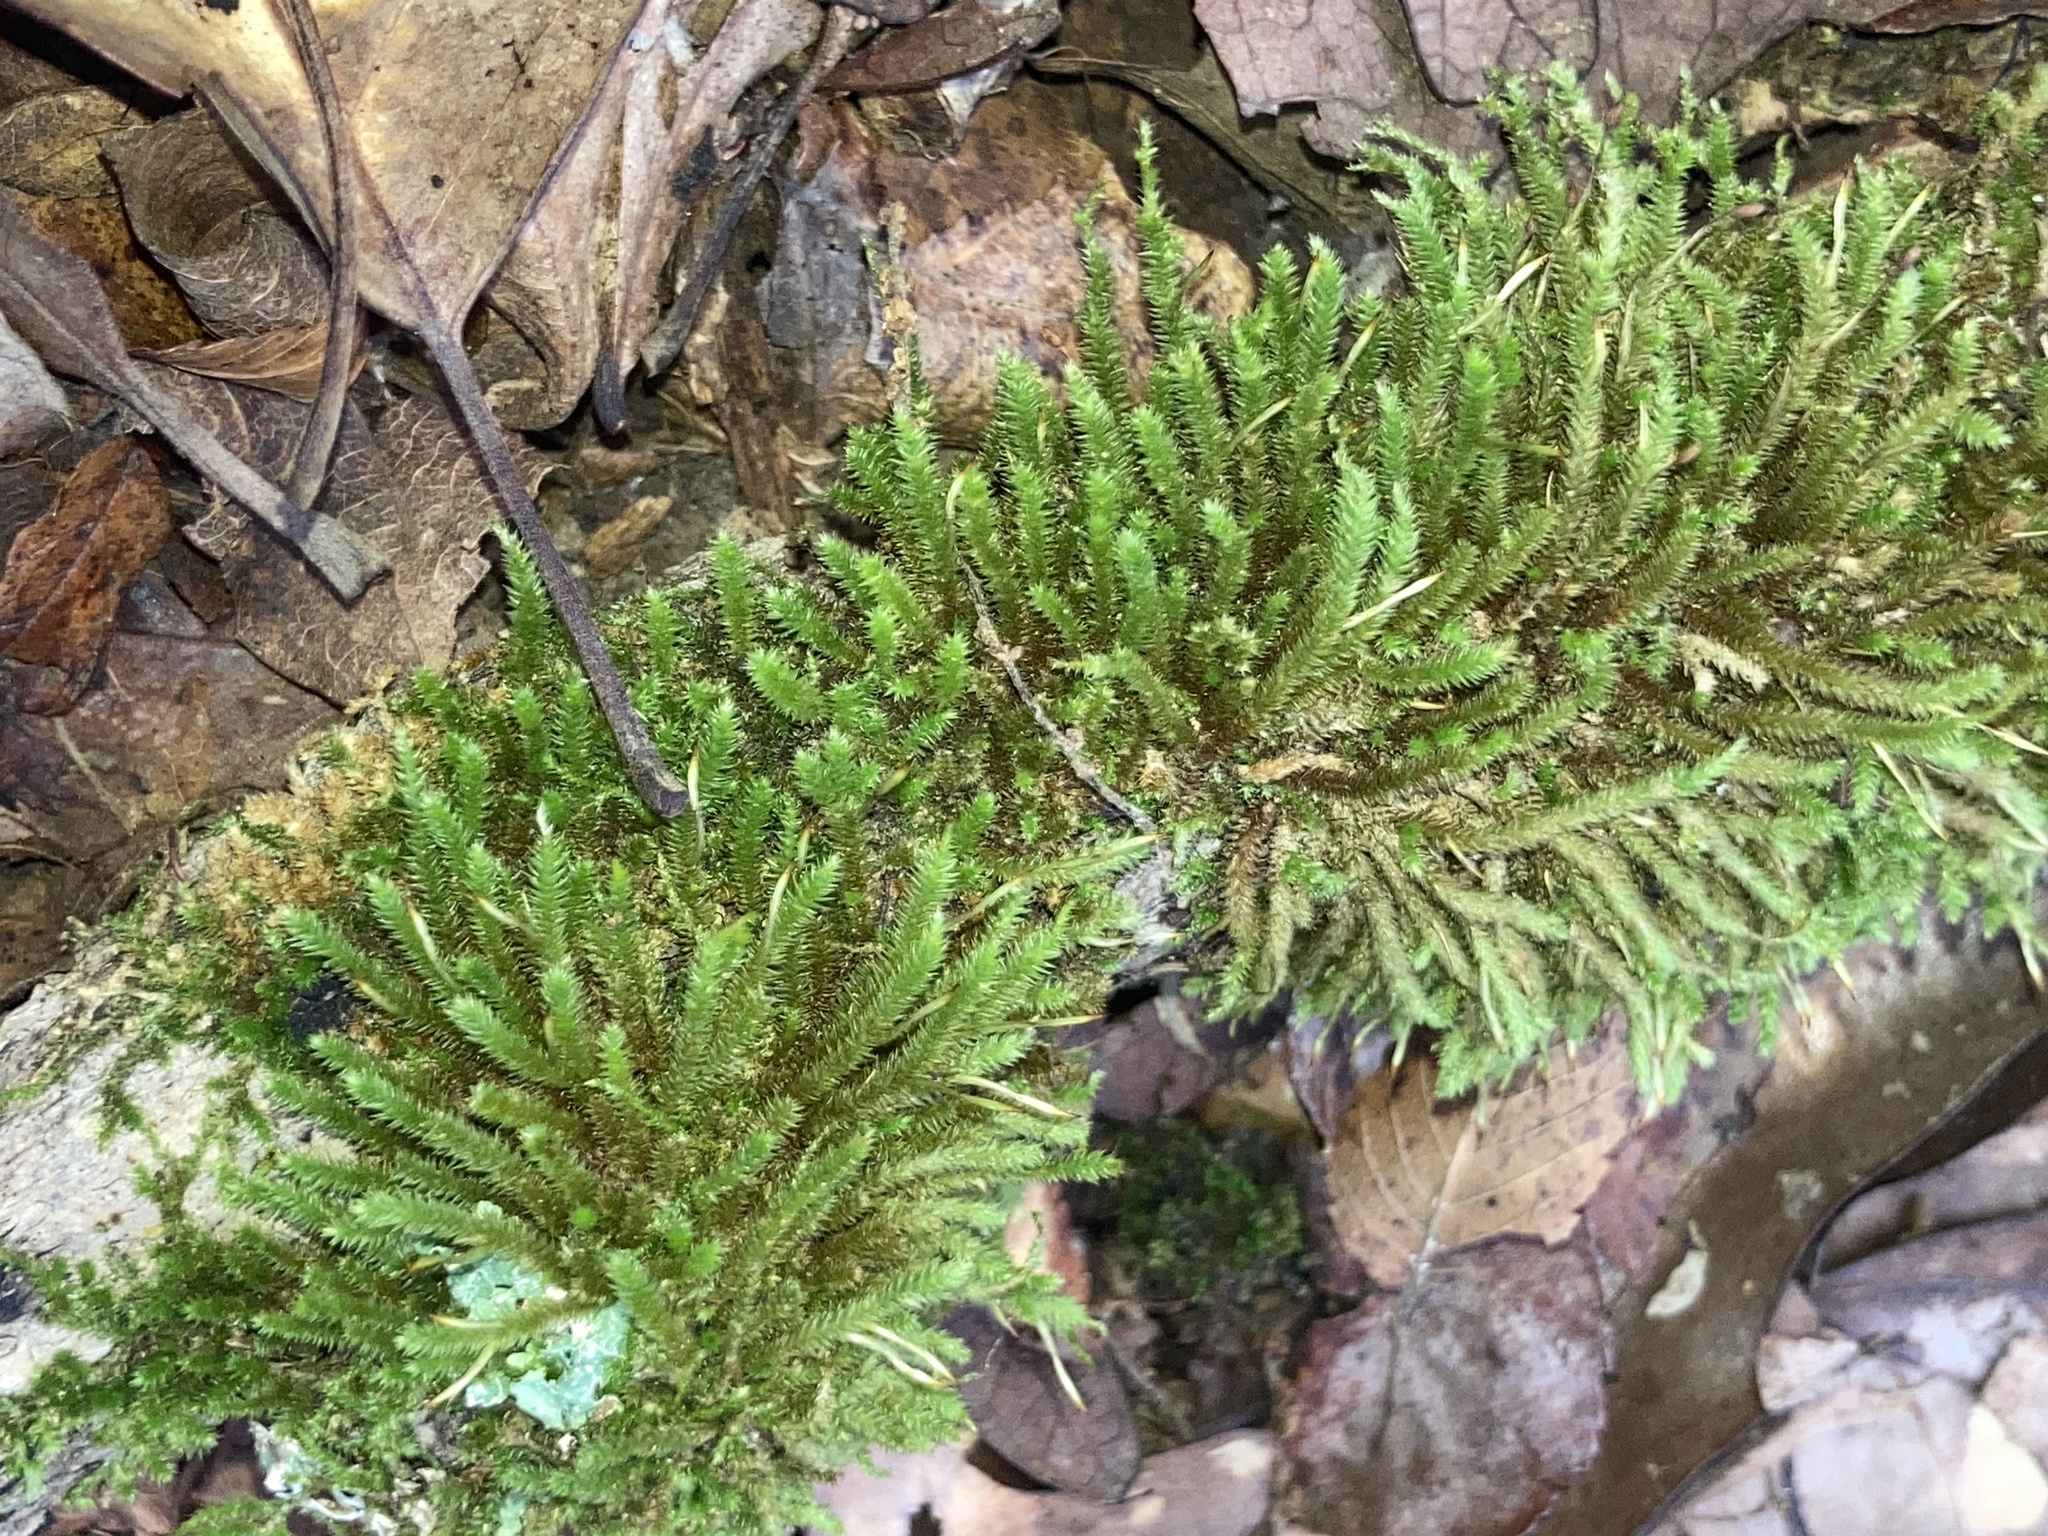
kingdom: Plantae
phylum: Bryophyta
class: Bryopsida
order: Hypnales
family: Leucodontaceae
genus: Leucodon
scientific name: Leucodon julaceus
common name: Smooth hook moss
